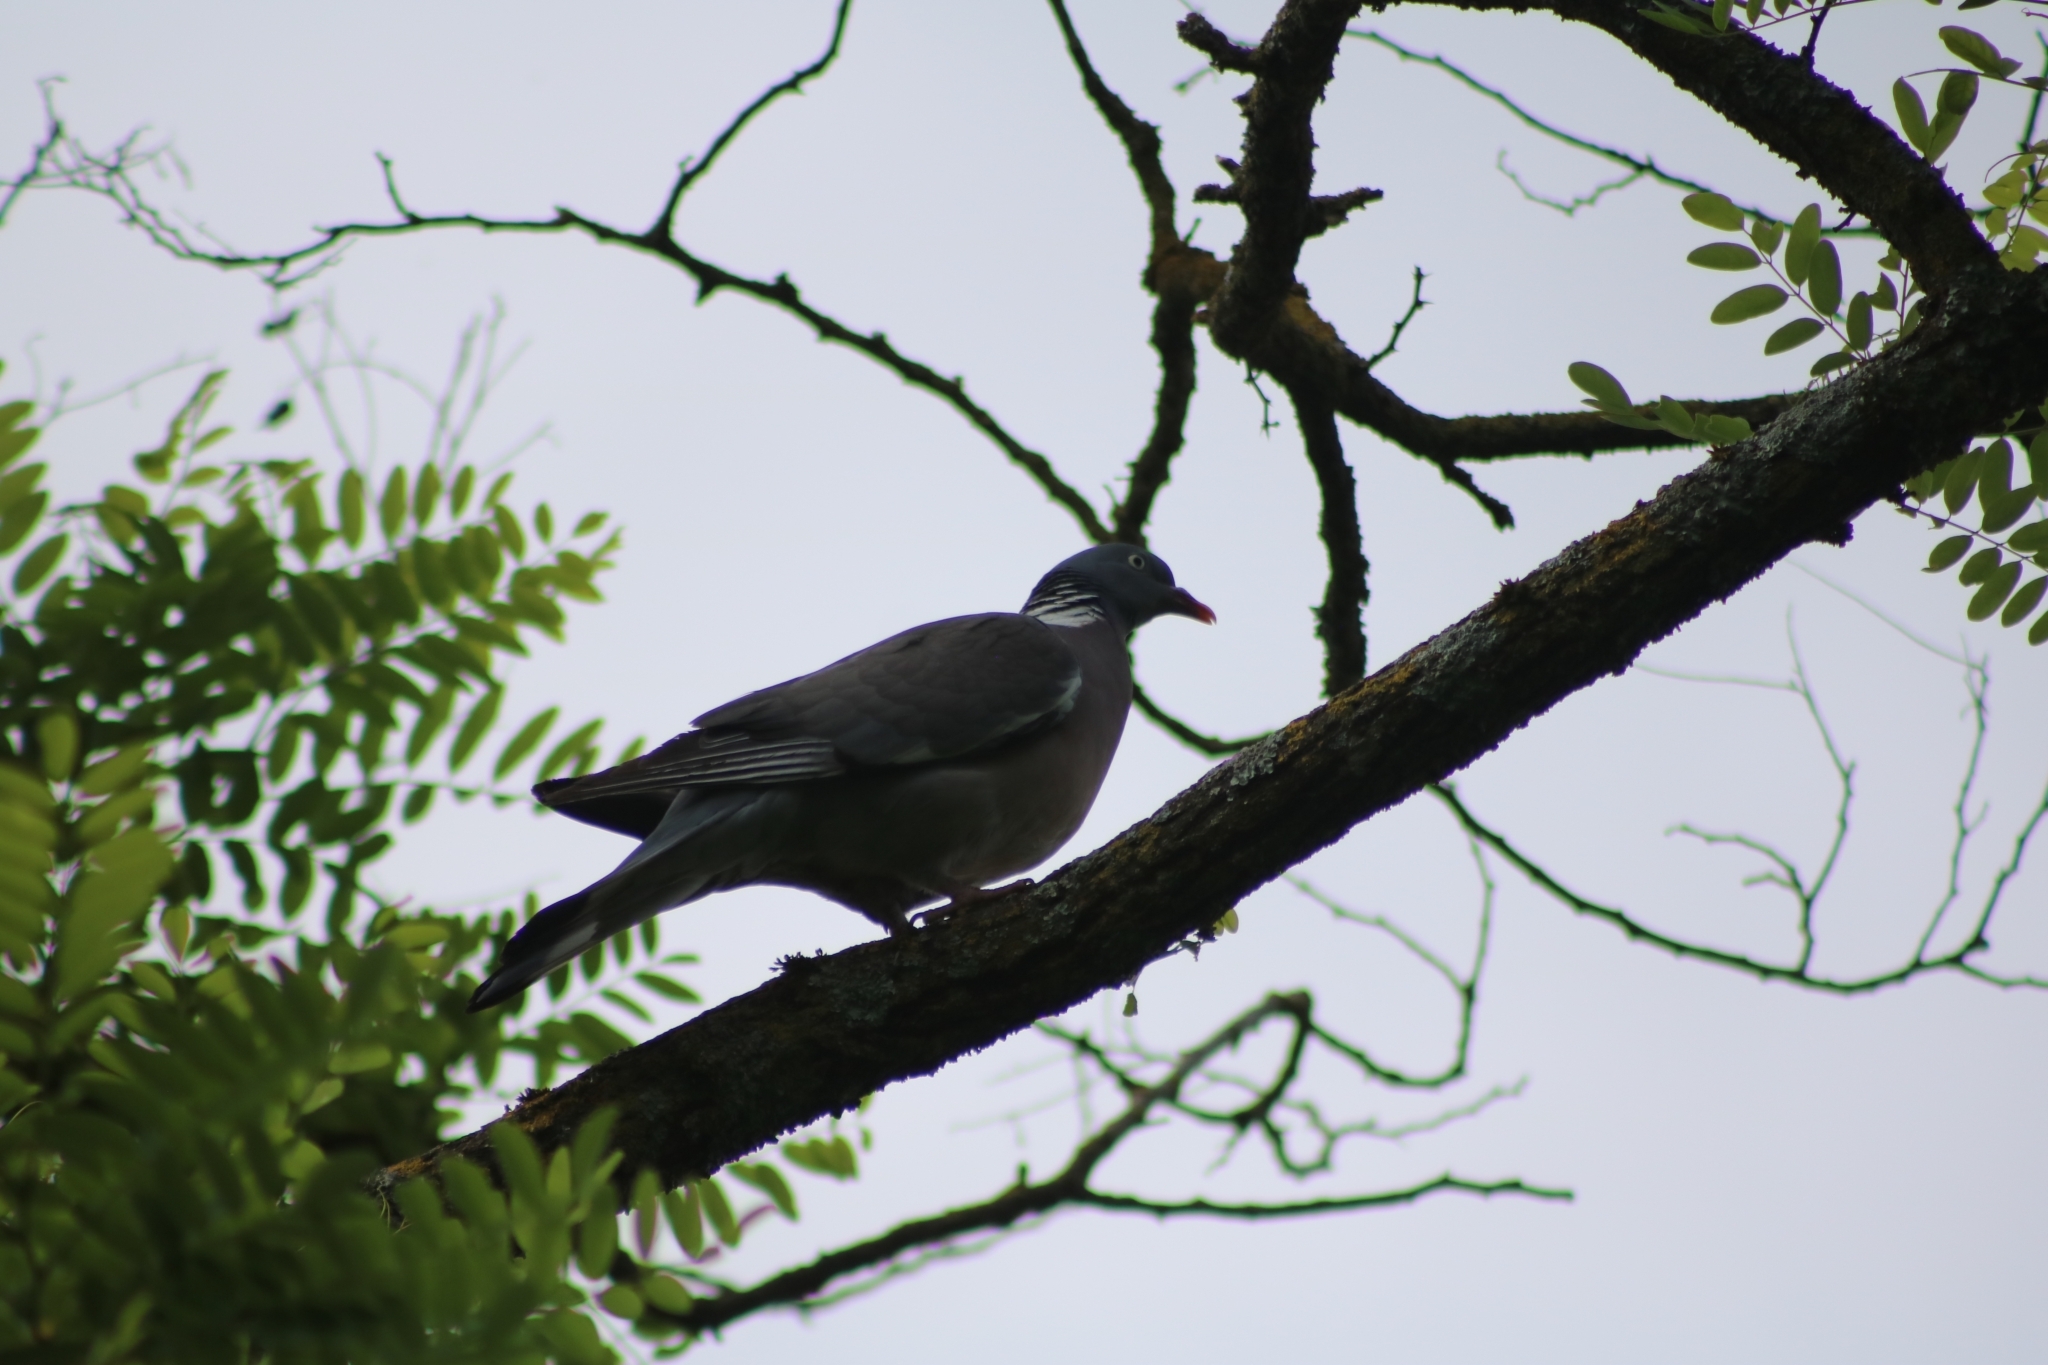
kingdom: Animalia
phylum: Chordata
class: Aves
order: Columbiformes
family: Columbidae
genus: Columba
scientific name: Columba palumbus
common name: Common wood pigeon
